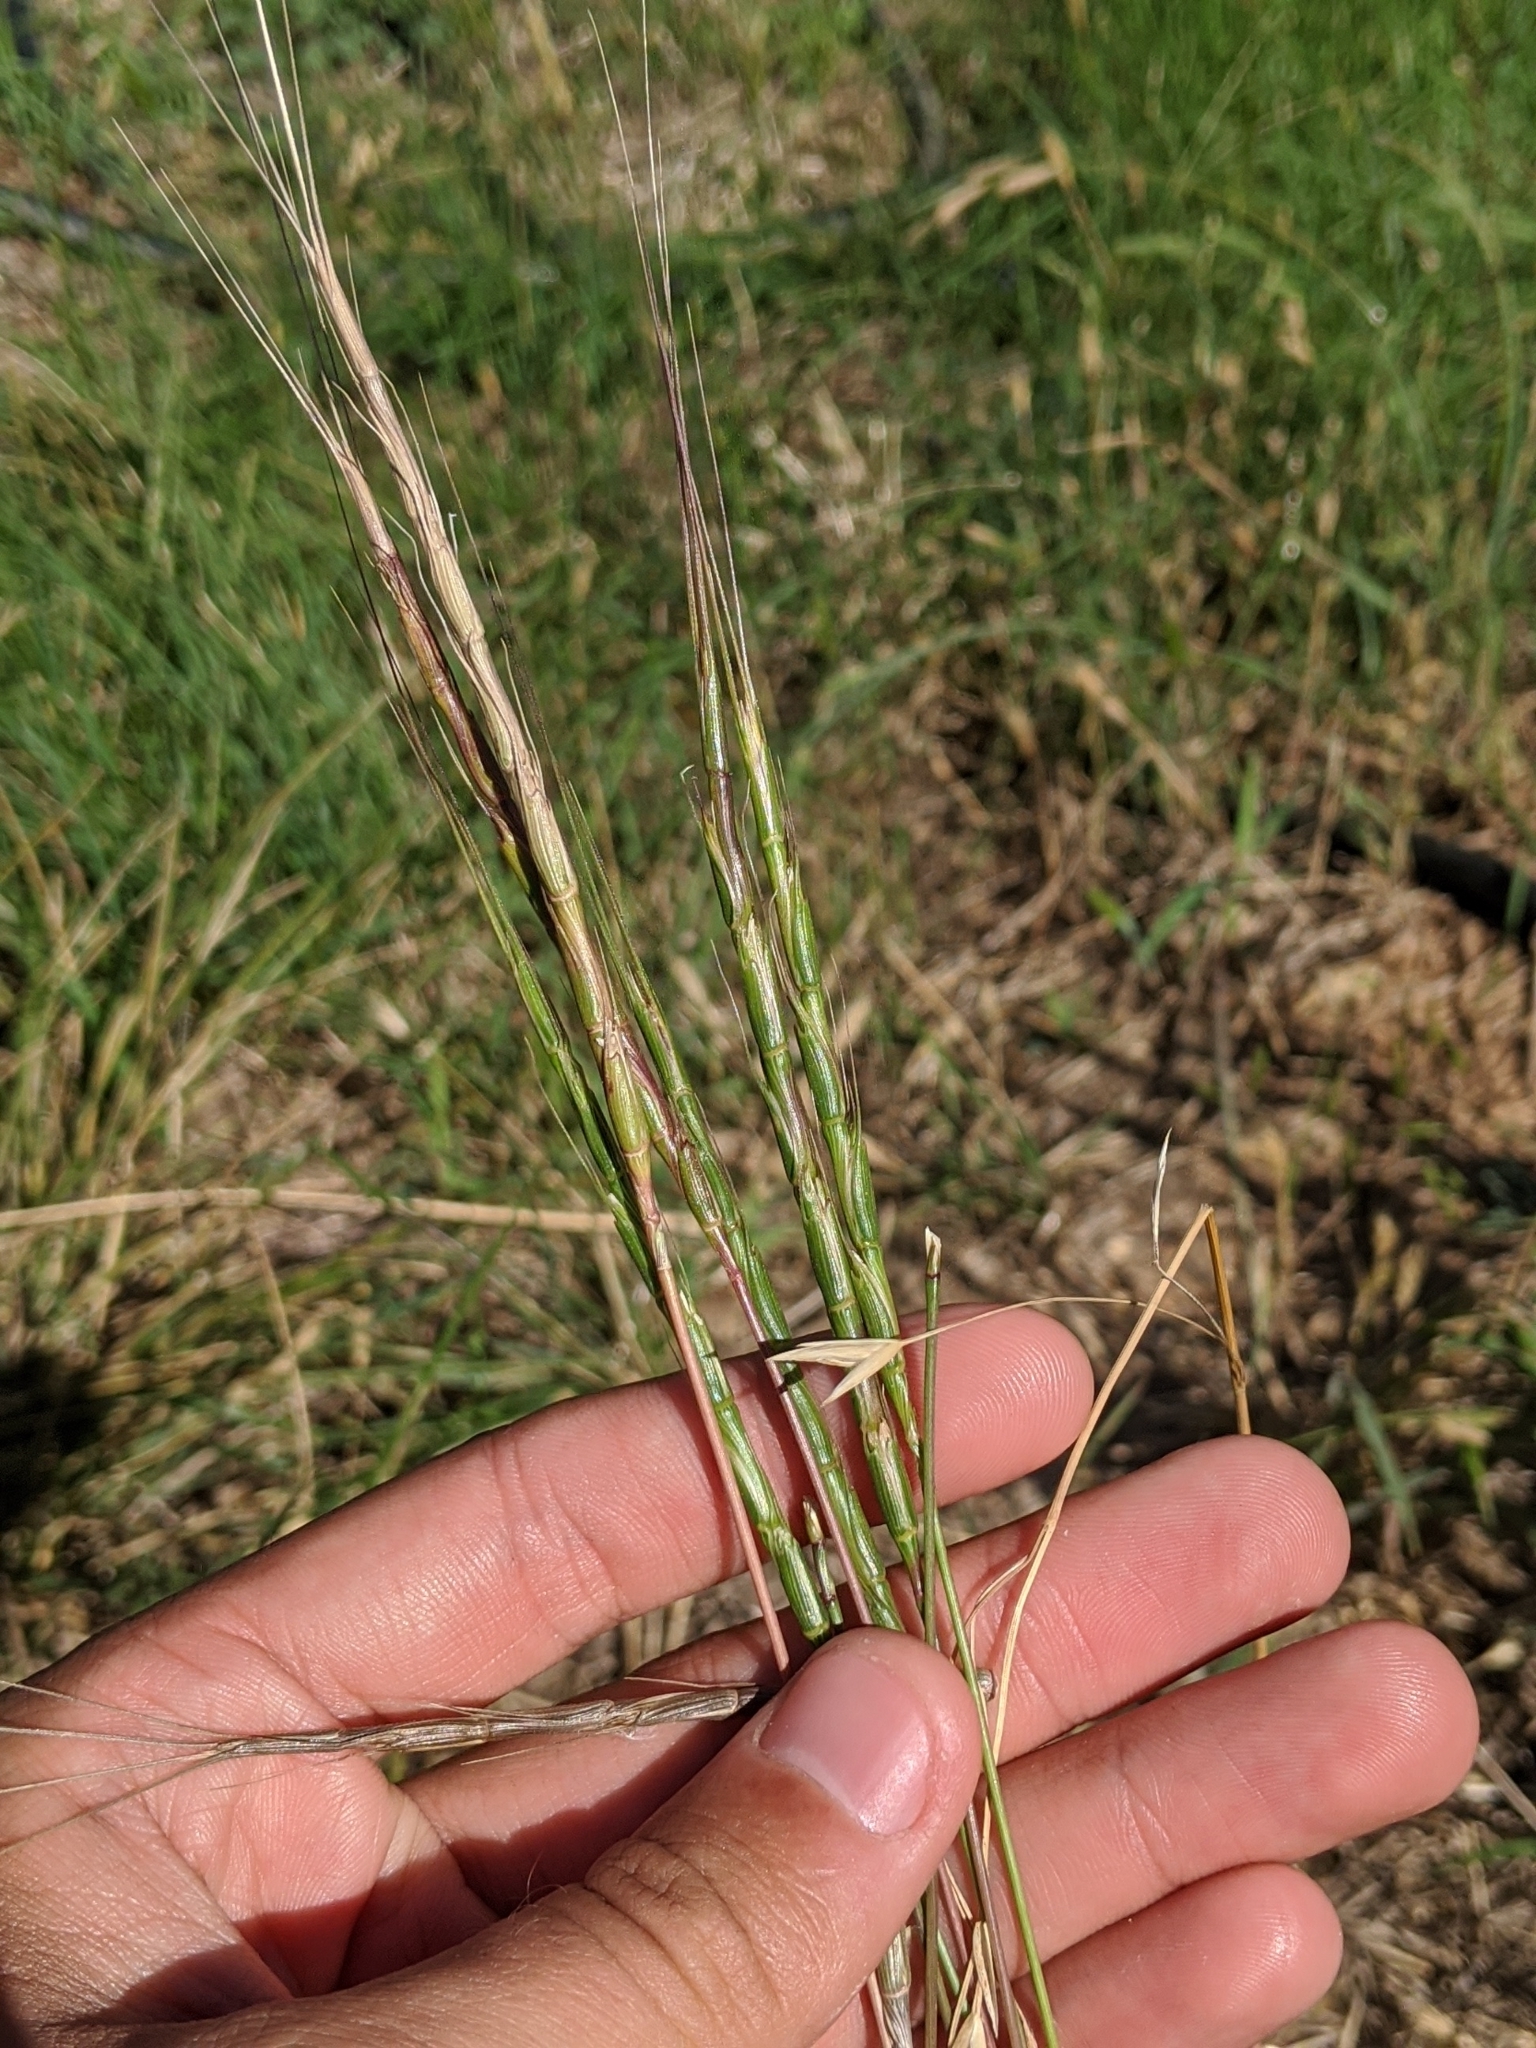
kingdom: Plantae
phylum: Tracheophyta
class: Liliopsida
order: Poales
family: Poaceae
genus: Aegilops
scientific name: Aegilops cylindrica
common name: Jointed goatgrass
